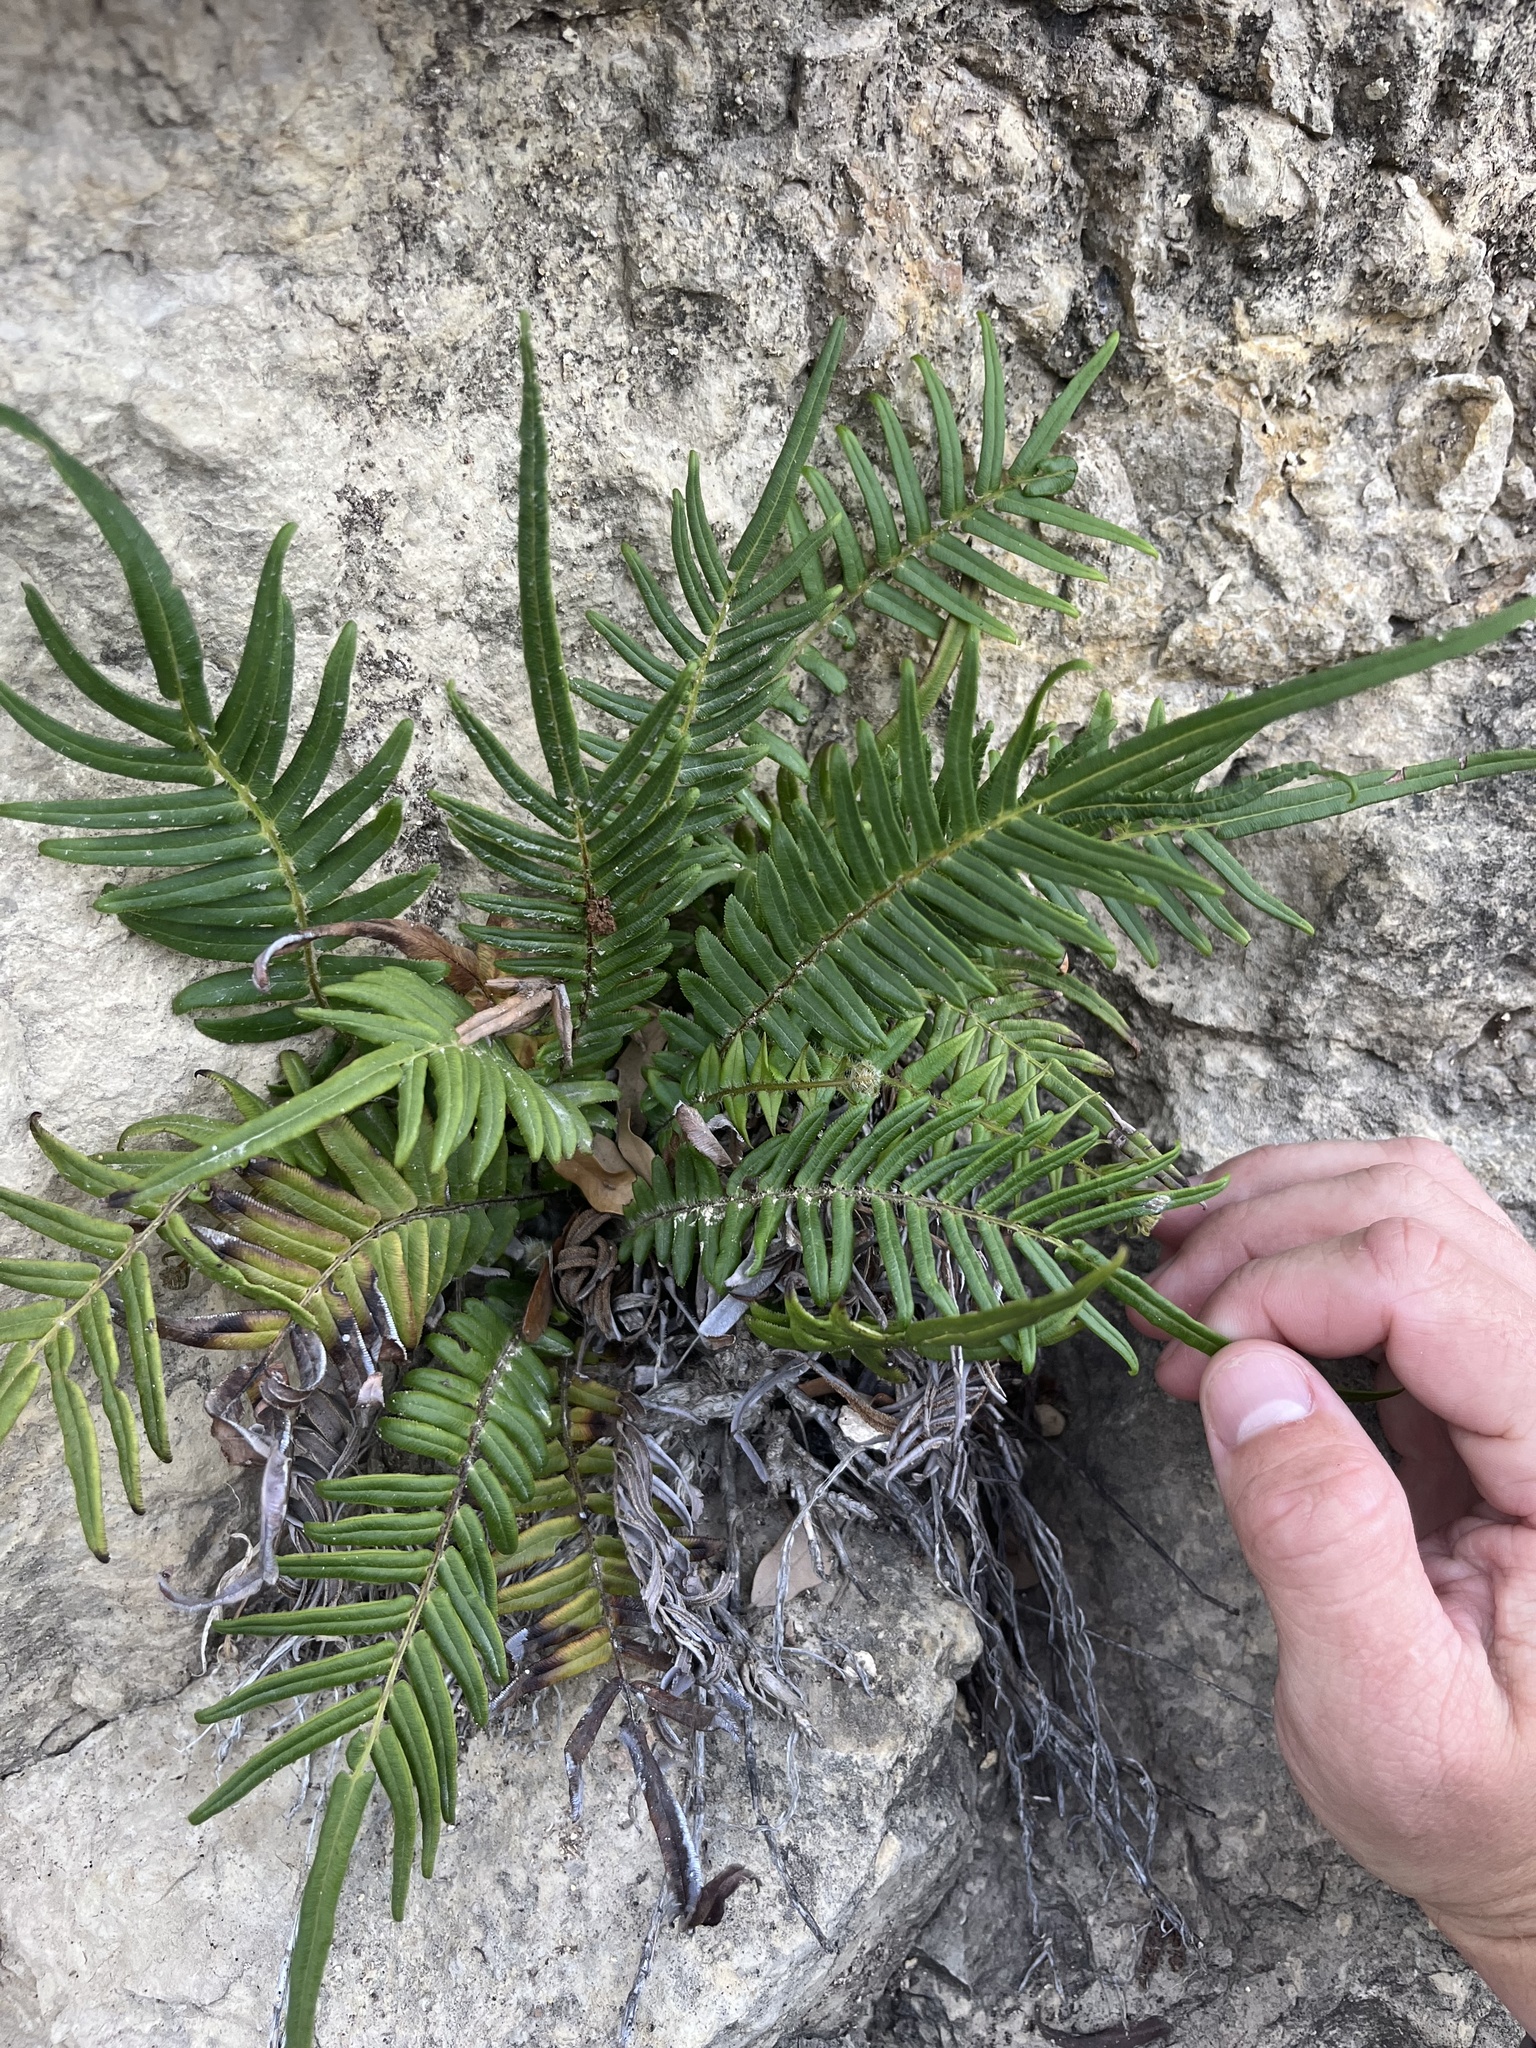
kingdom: Plantae
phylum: Tracheophyta
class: Polypodiopsida
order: Polypodiales
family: Pteridaceae
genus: Pteris
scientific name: Pteris vittata
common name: Ladder brake
